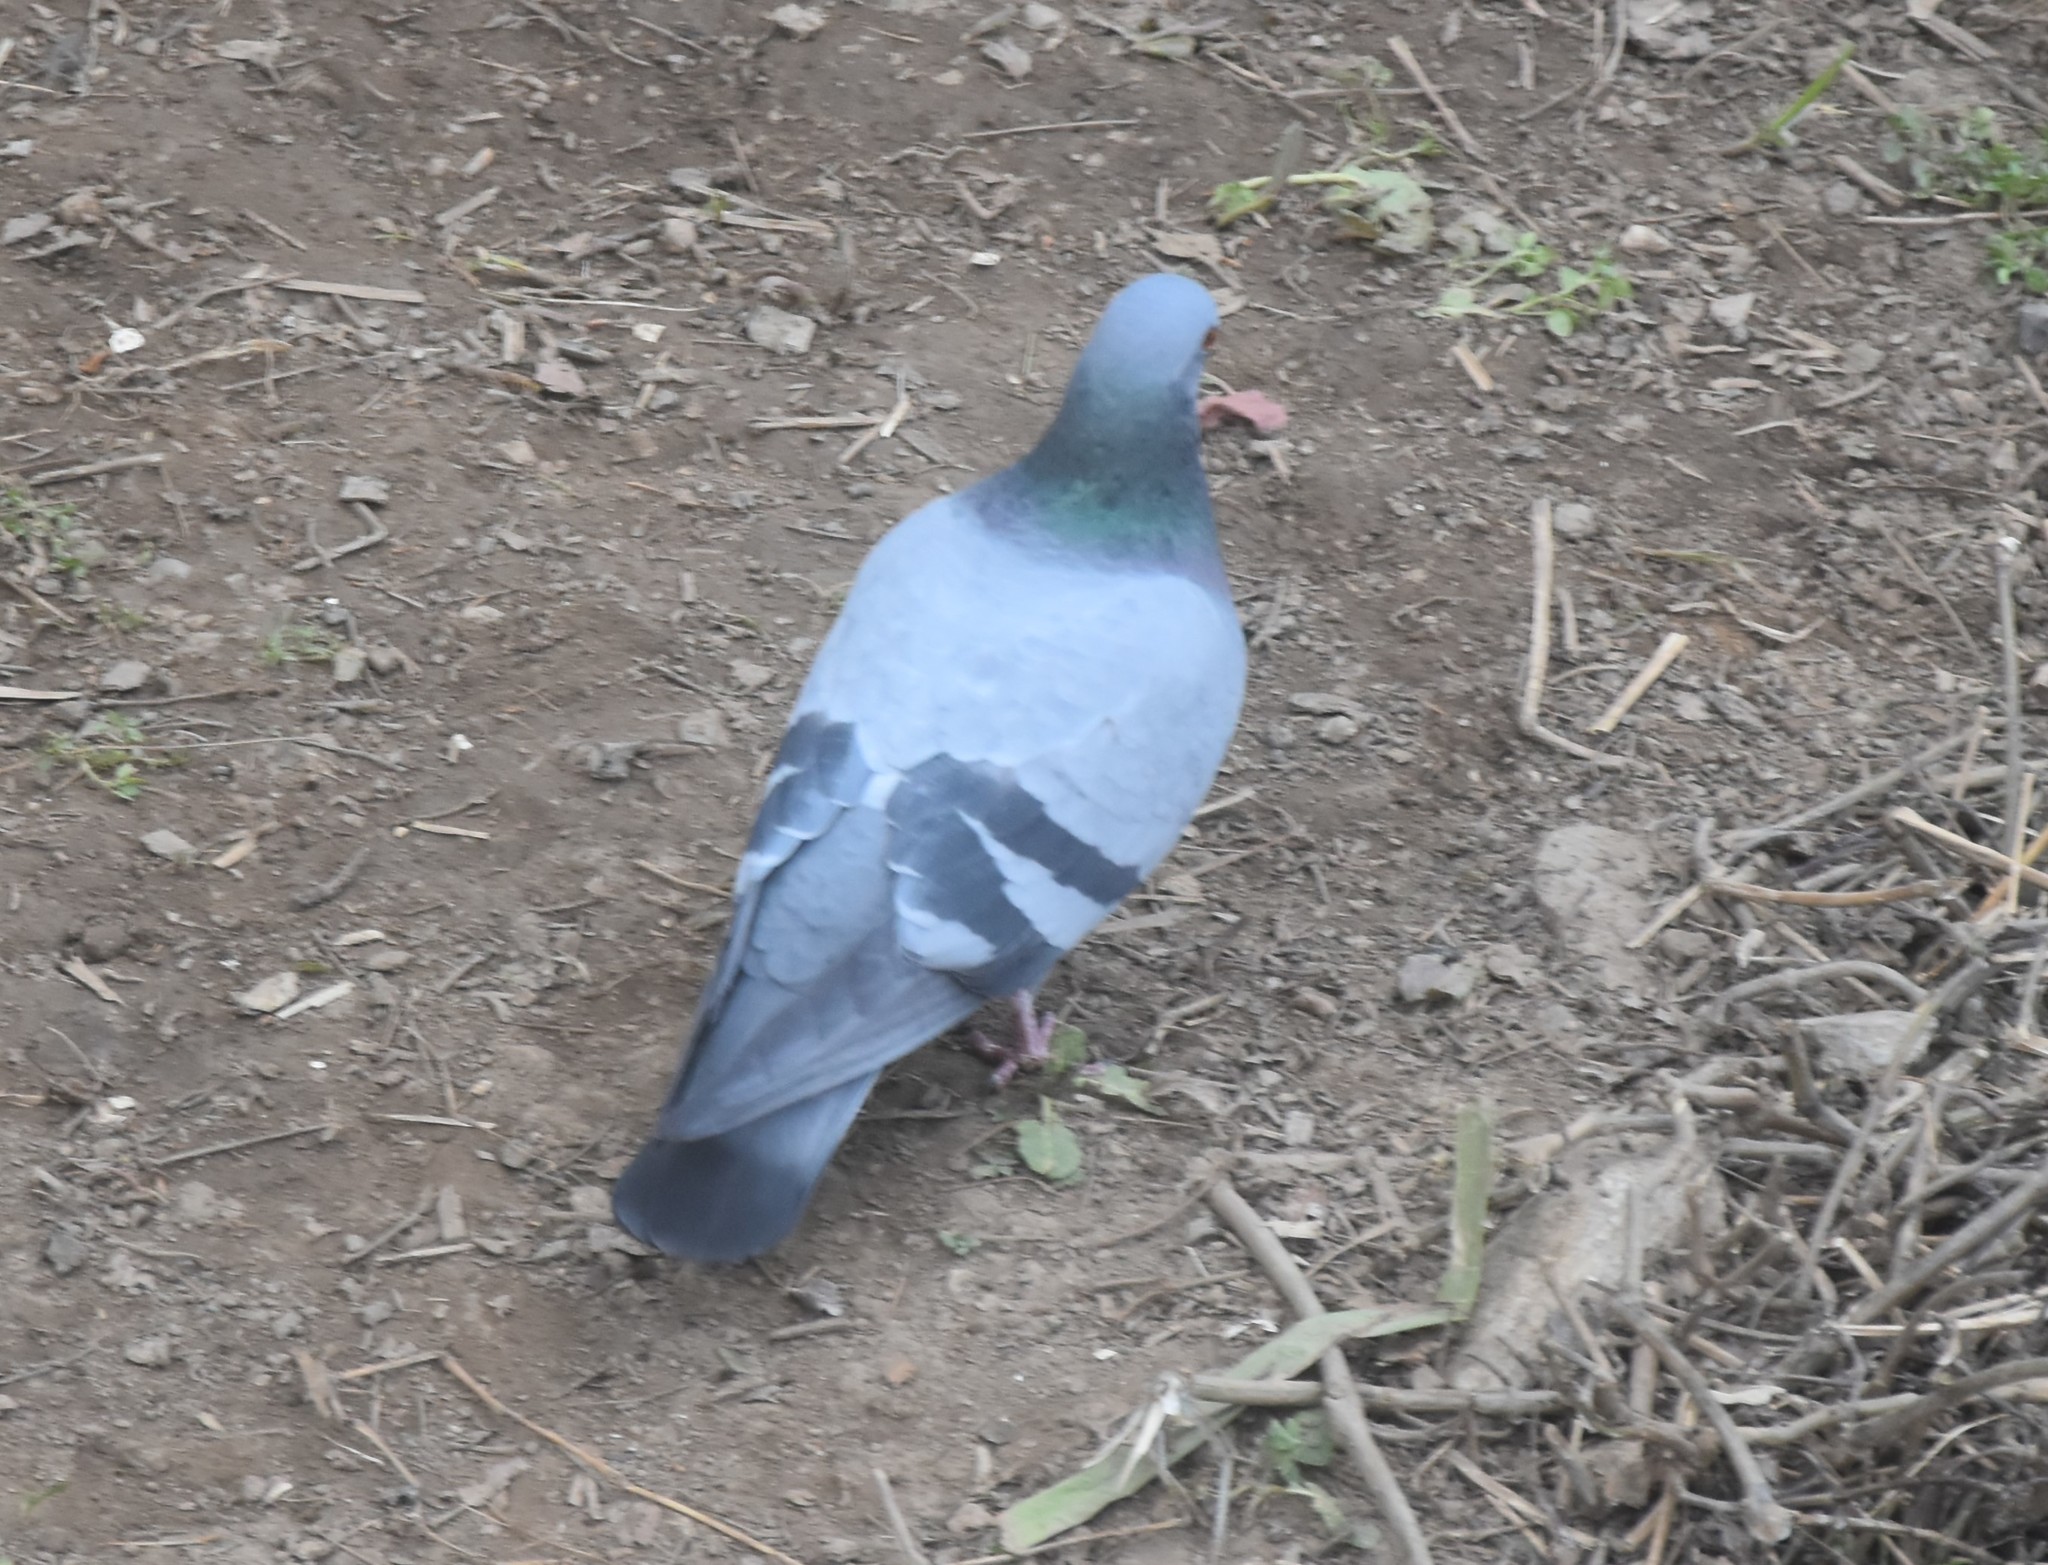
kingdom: Animalia
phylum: Chordata
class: Aves
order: Columbiformes
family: Columbidae
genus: Columba
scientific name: Columba livia
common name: Rock pigeon
